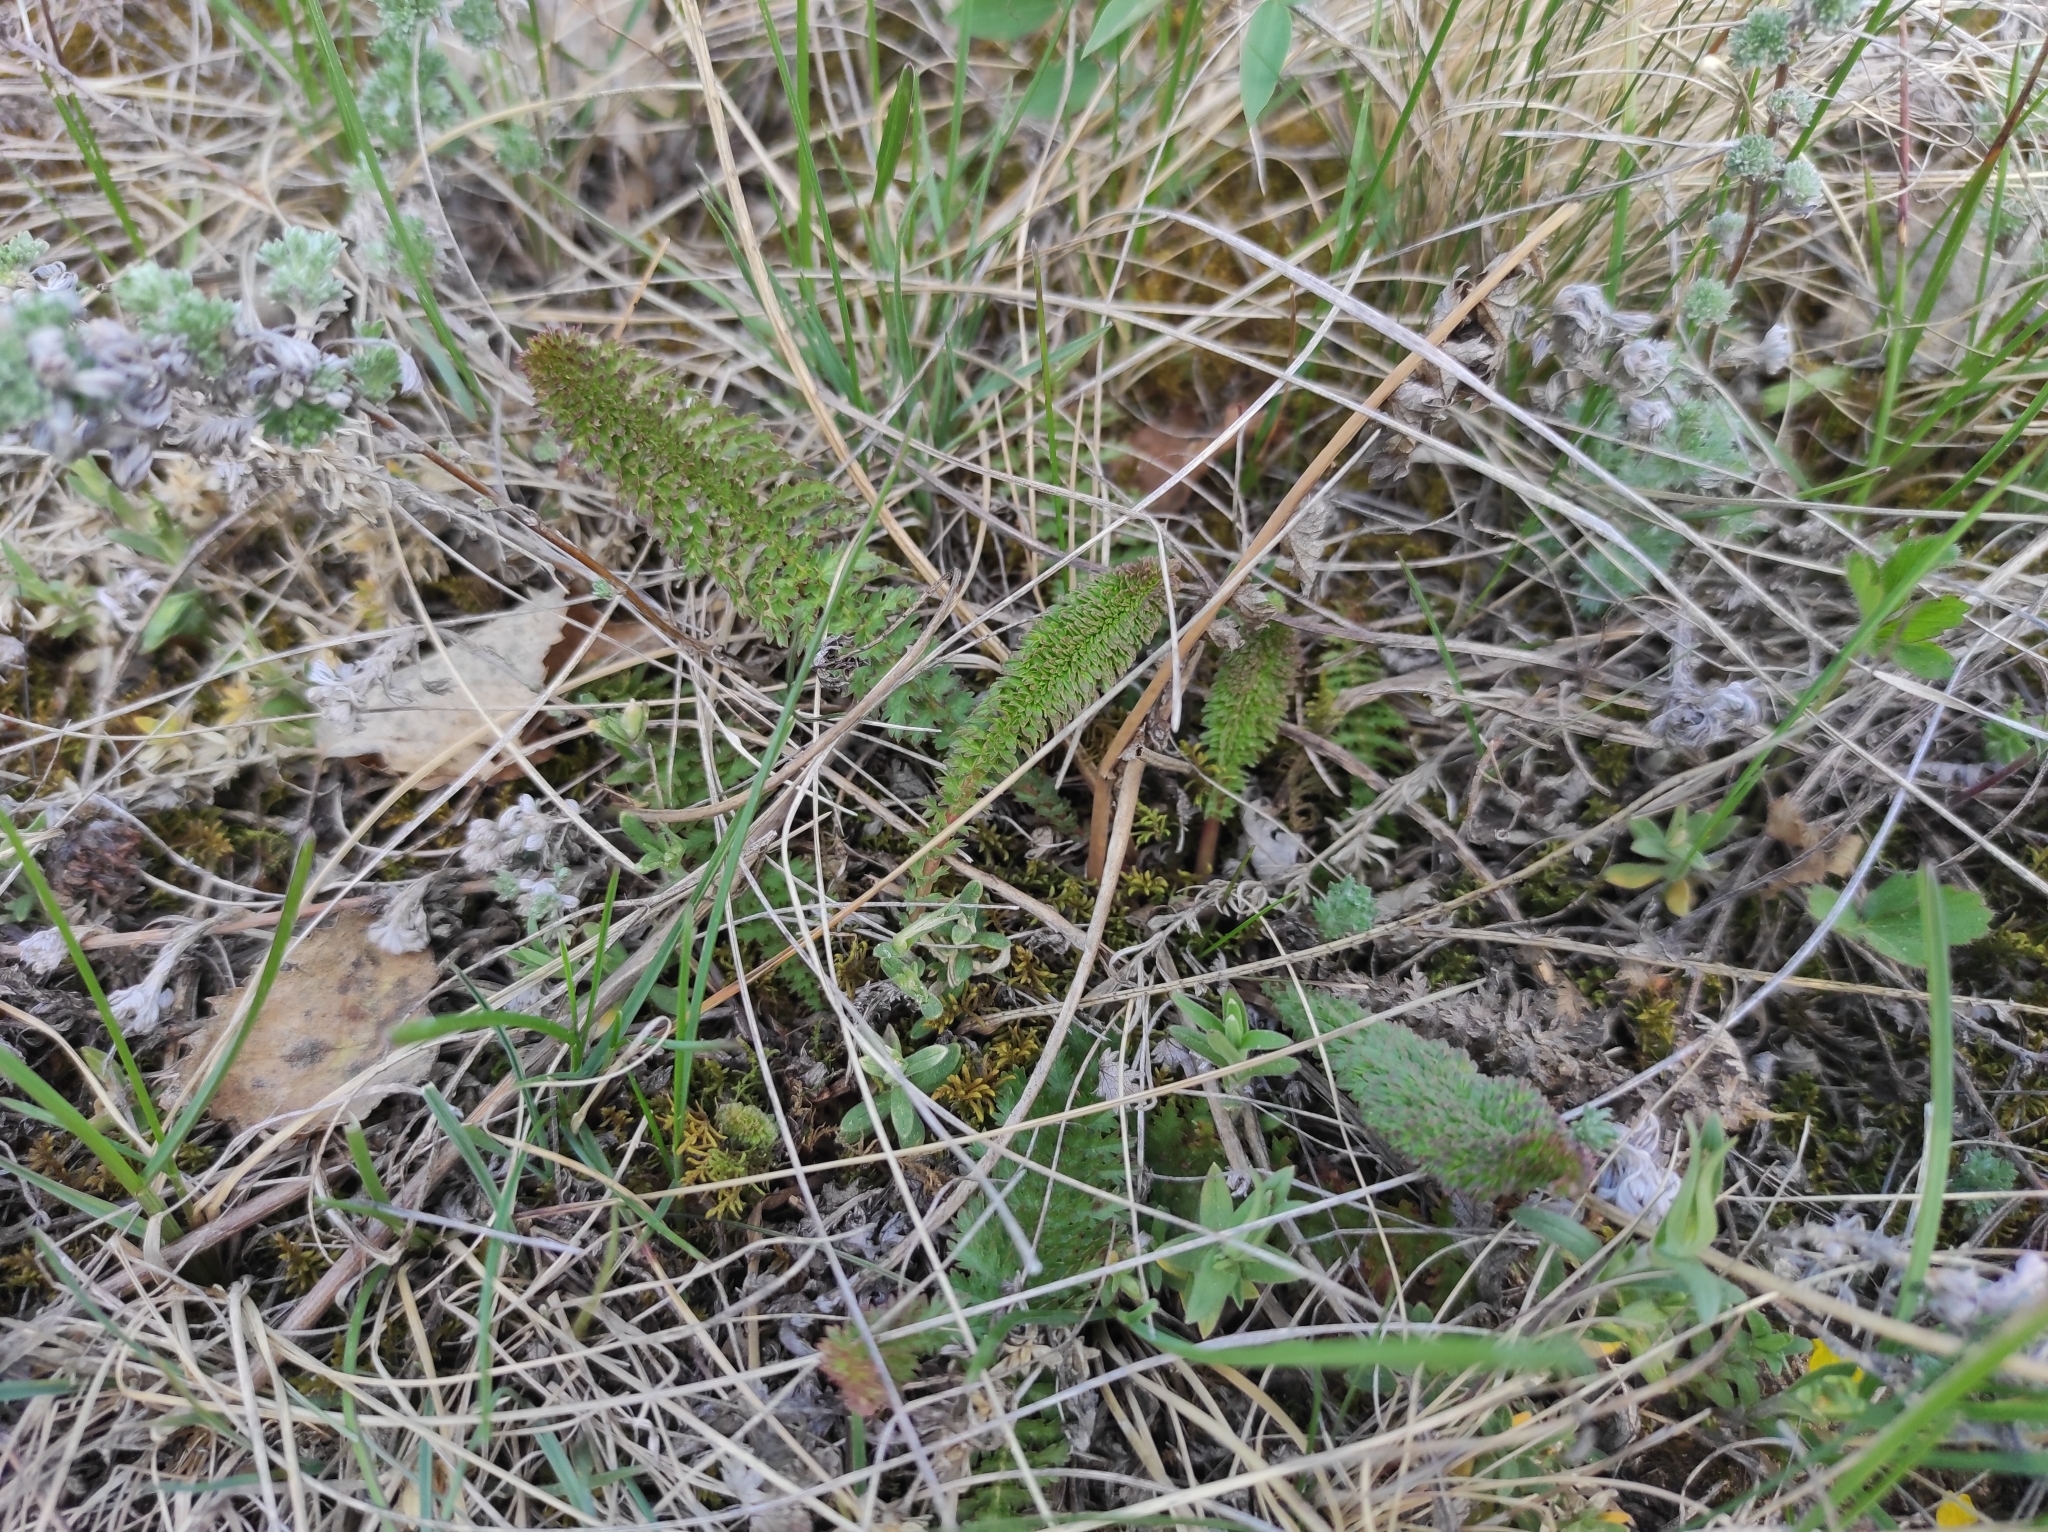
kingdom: Plantae
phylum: Tracheophyta
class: Magnoliopsida
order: Rosales
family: Rosaceae
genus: Filipendula
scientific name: Filipendula vulgaris
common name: Dropwort
